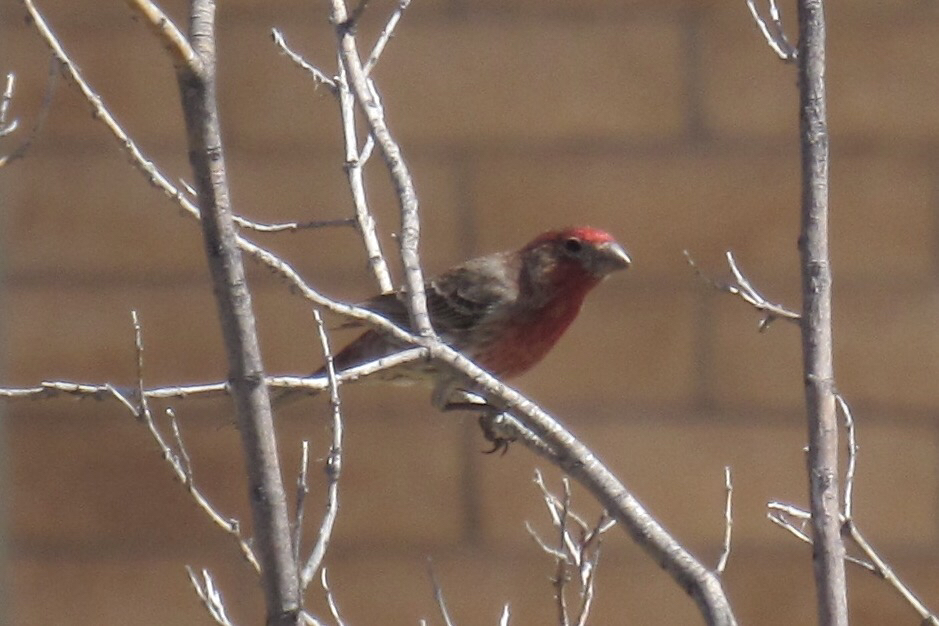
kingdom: Animalia
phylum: Chordata
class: Aves
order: Passeriformes
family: Fringillidae
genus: Haemorhous
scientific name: Haemorhous mexicanus
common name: House finch
